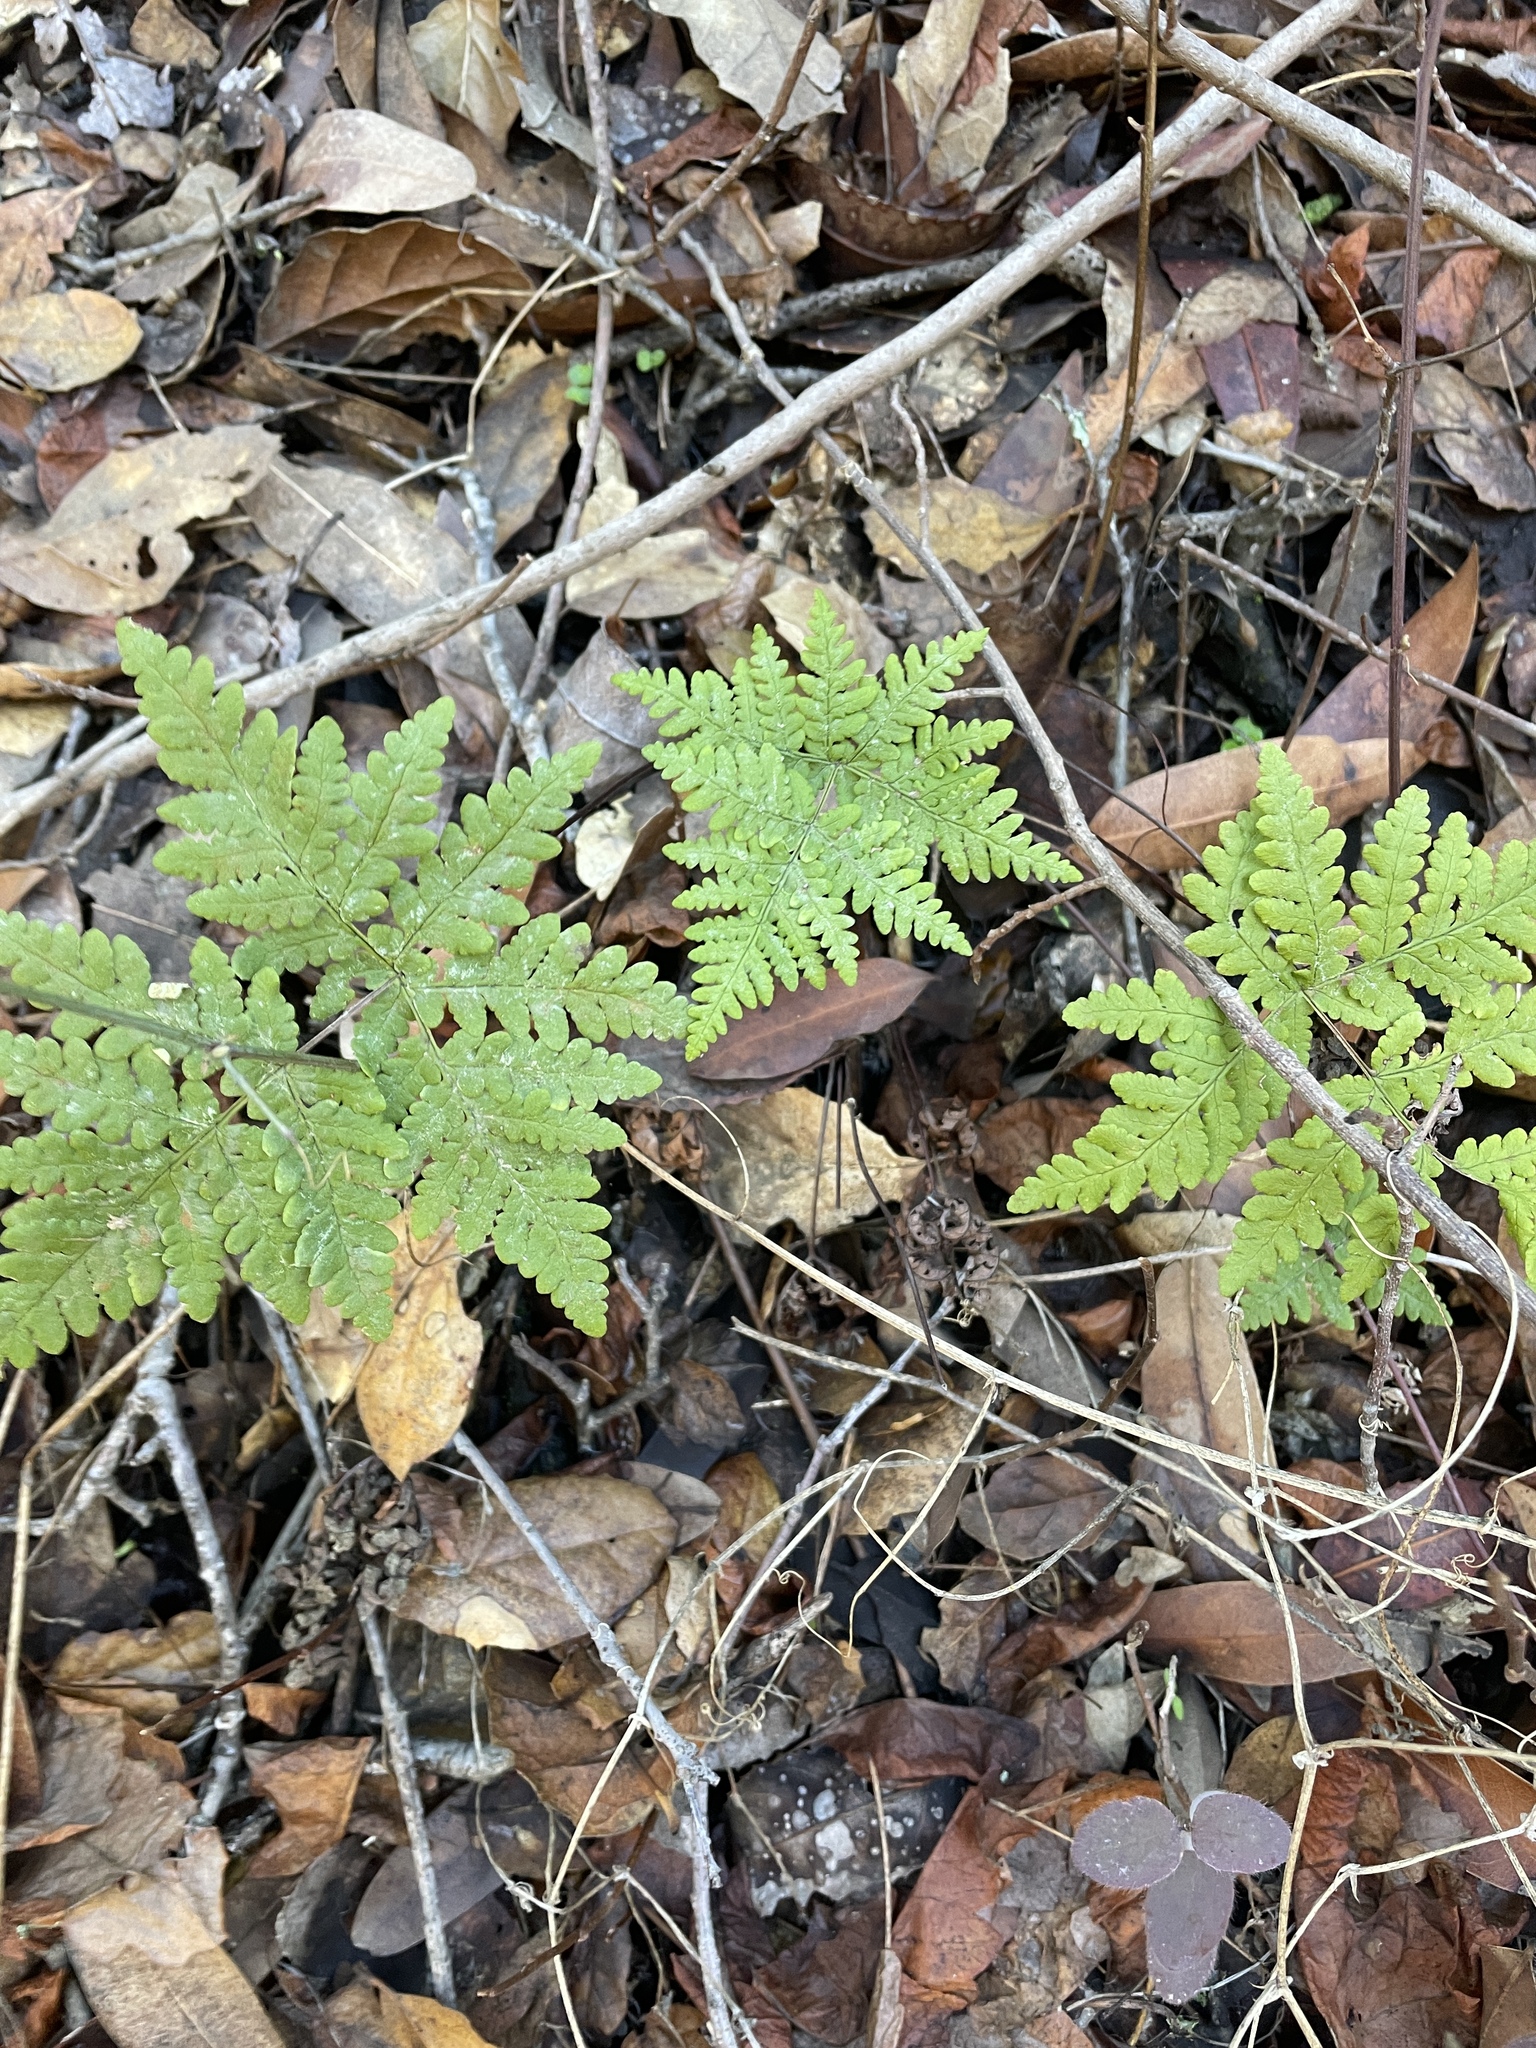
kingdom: Plantae
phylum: Tracheophyta
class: Polypodiopsida
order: Polypodiales
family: Pteridaceae
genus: Pentagramma
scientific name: Pentagramma triangularis
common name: Gold fern
